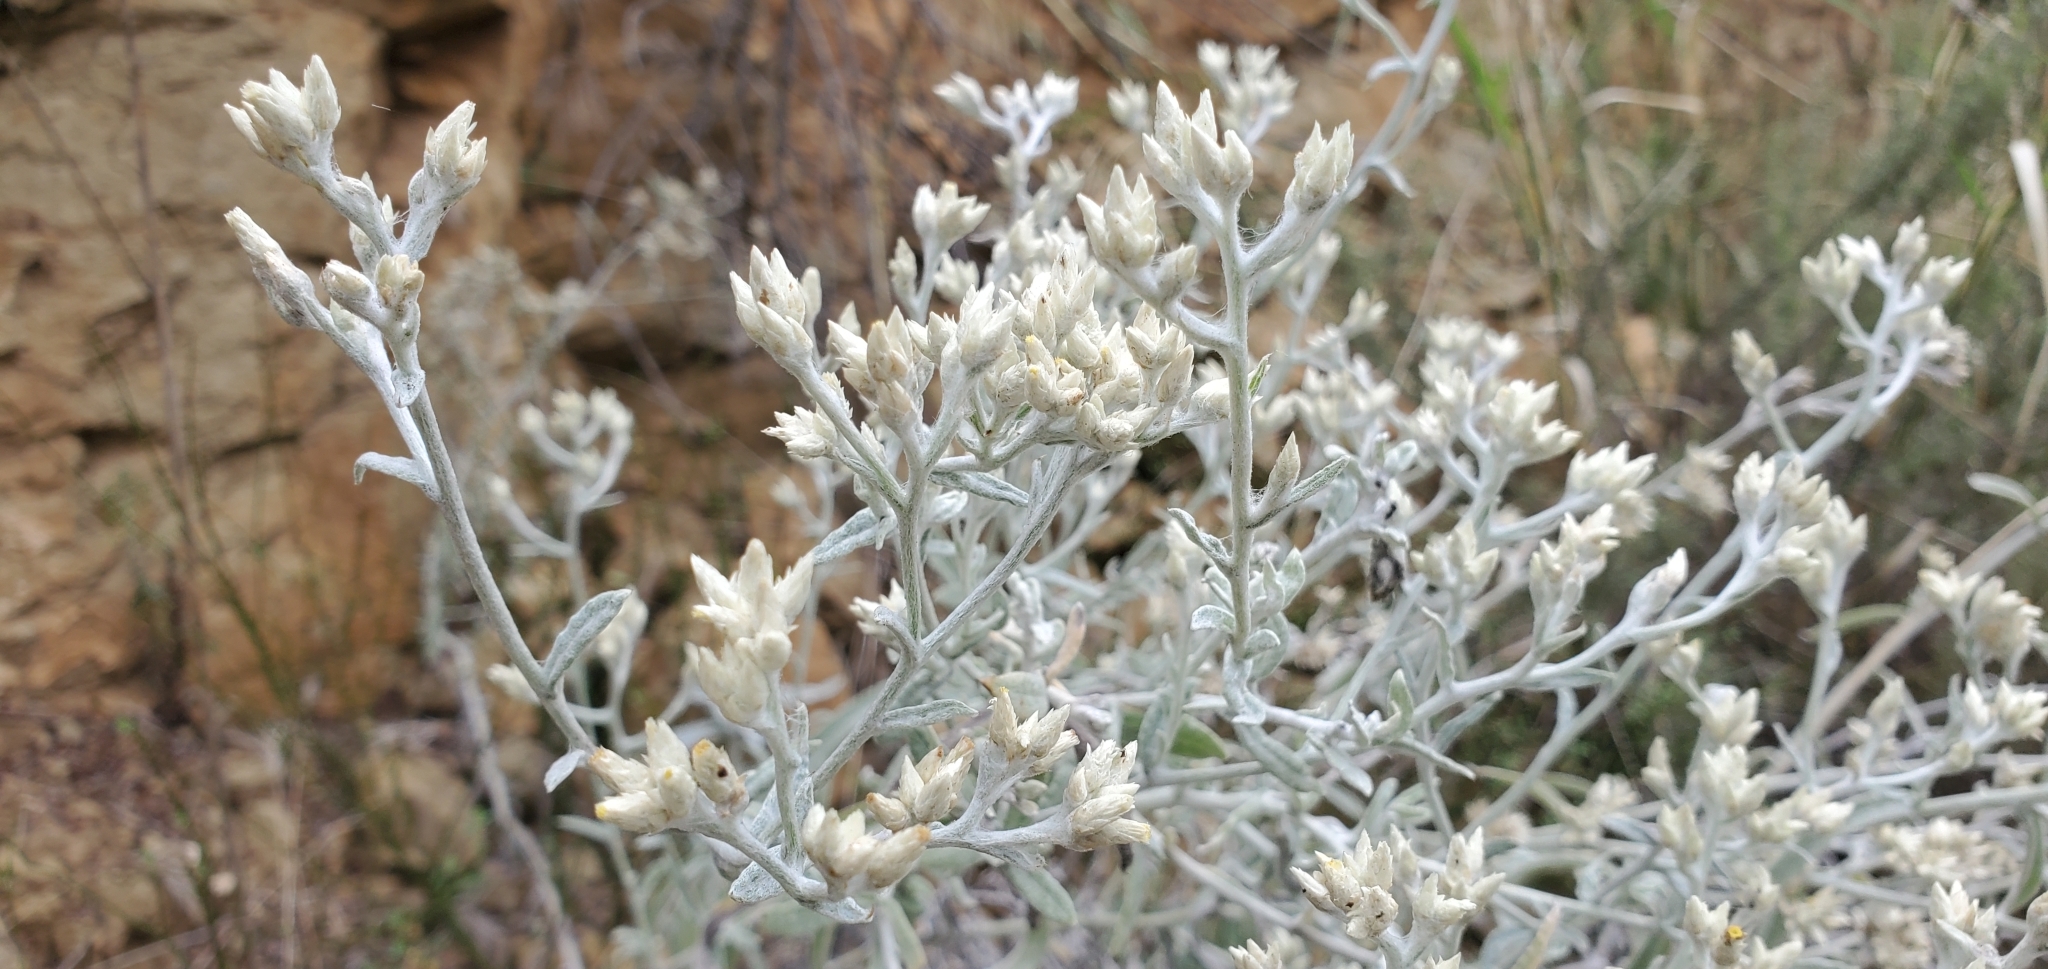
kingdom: Plantae
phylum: Tracheophyta
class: Magnoliopsida
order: Asterales
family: Asteraceae
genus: Pseudognaphalium
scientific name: Pseudognaphalium microcephalum
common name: San diego rabbit-tobacco
